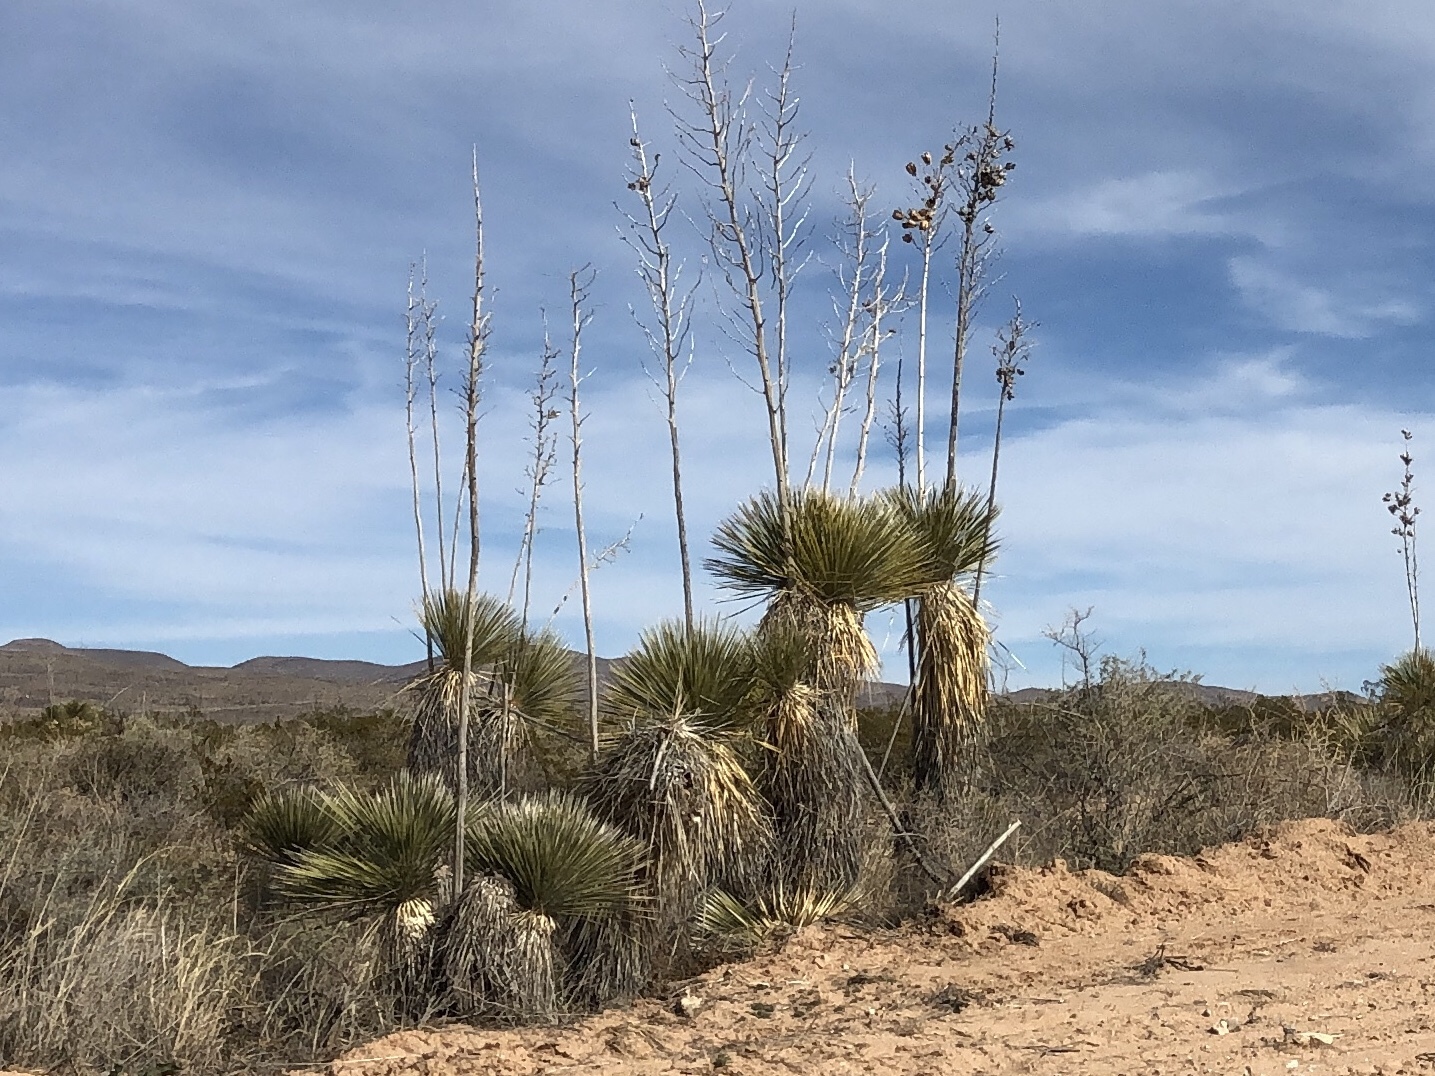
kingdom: Plantae
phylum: Tracheophyta
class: Liliopsida
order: Asparagales
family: Asparagaceae
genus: Yucca
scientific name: Yucca elata
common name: Palmella
